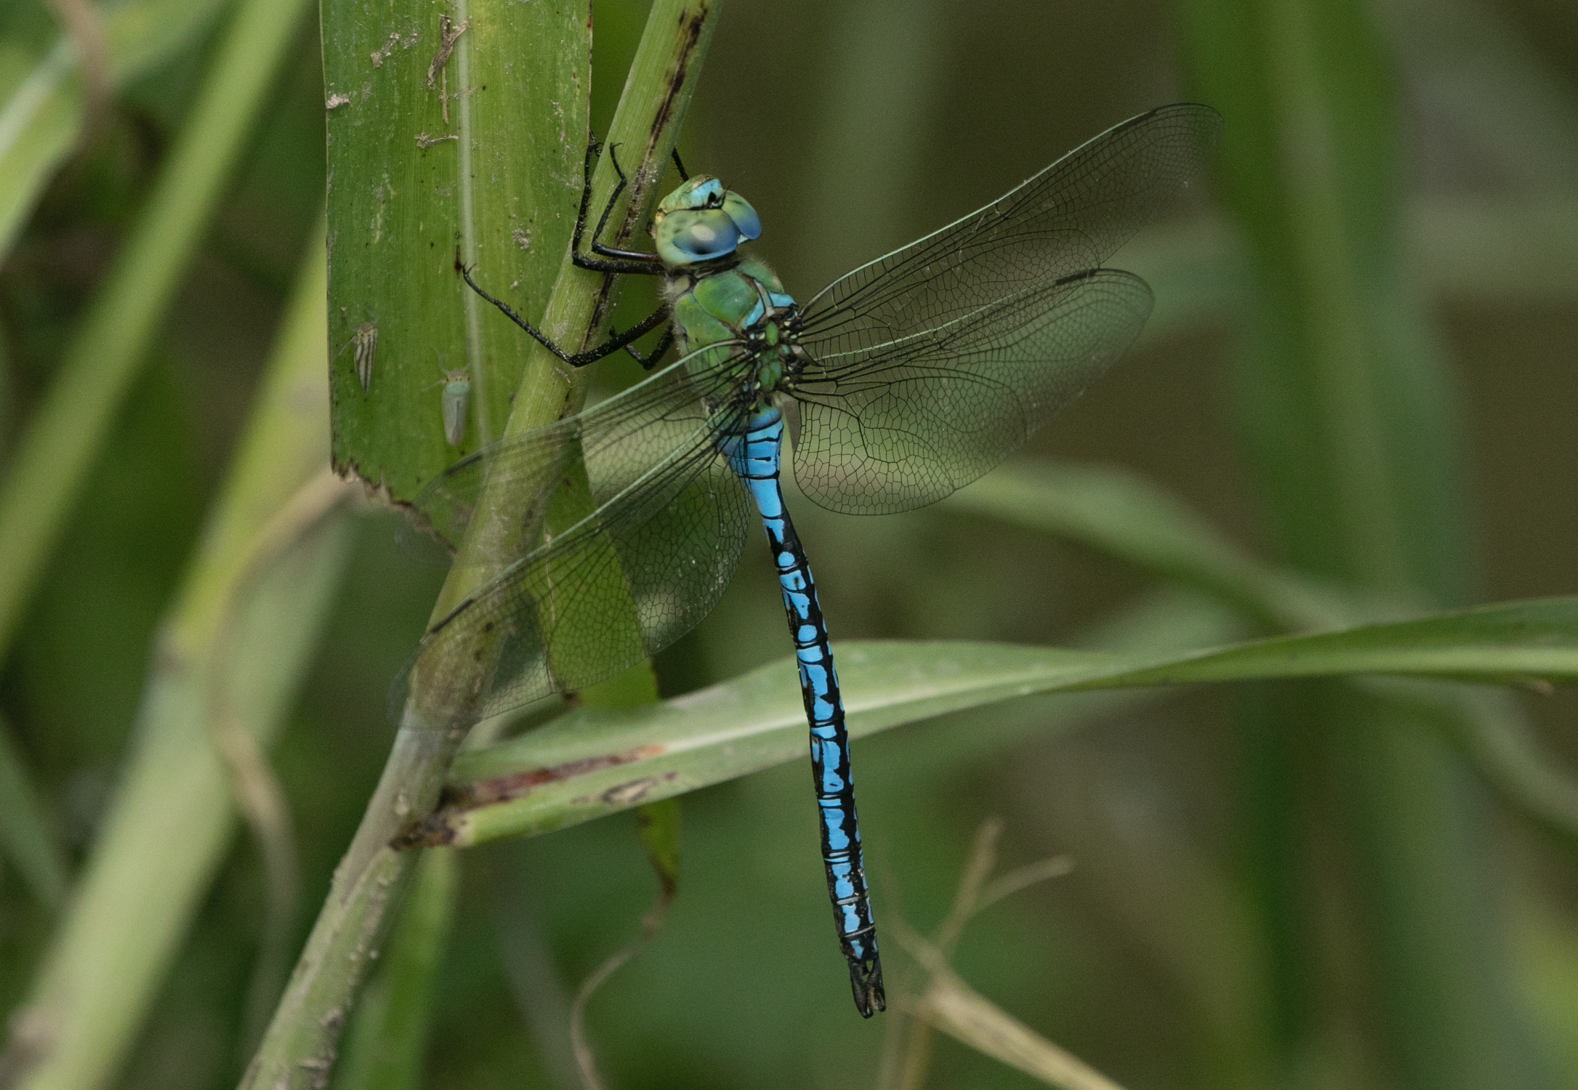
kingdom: Animalia
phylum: Arthropoda
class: Insecta
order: Odonata
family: Aeshnidae
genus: Anax
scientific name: Anax imperator
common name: Emperor dragonfly
